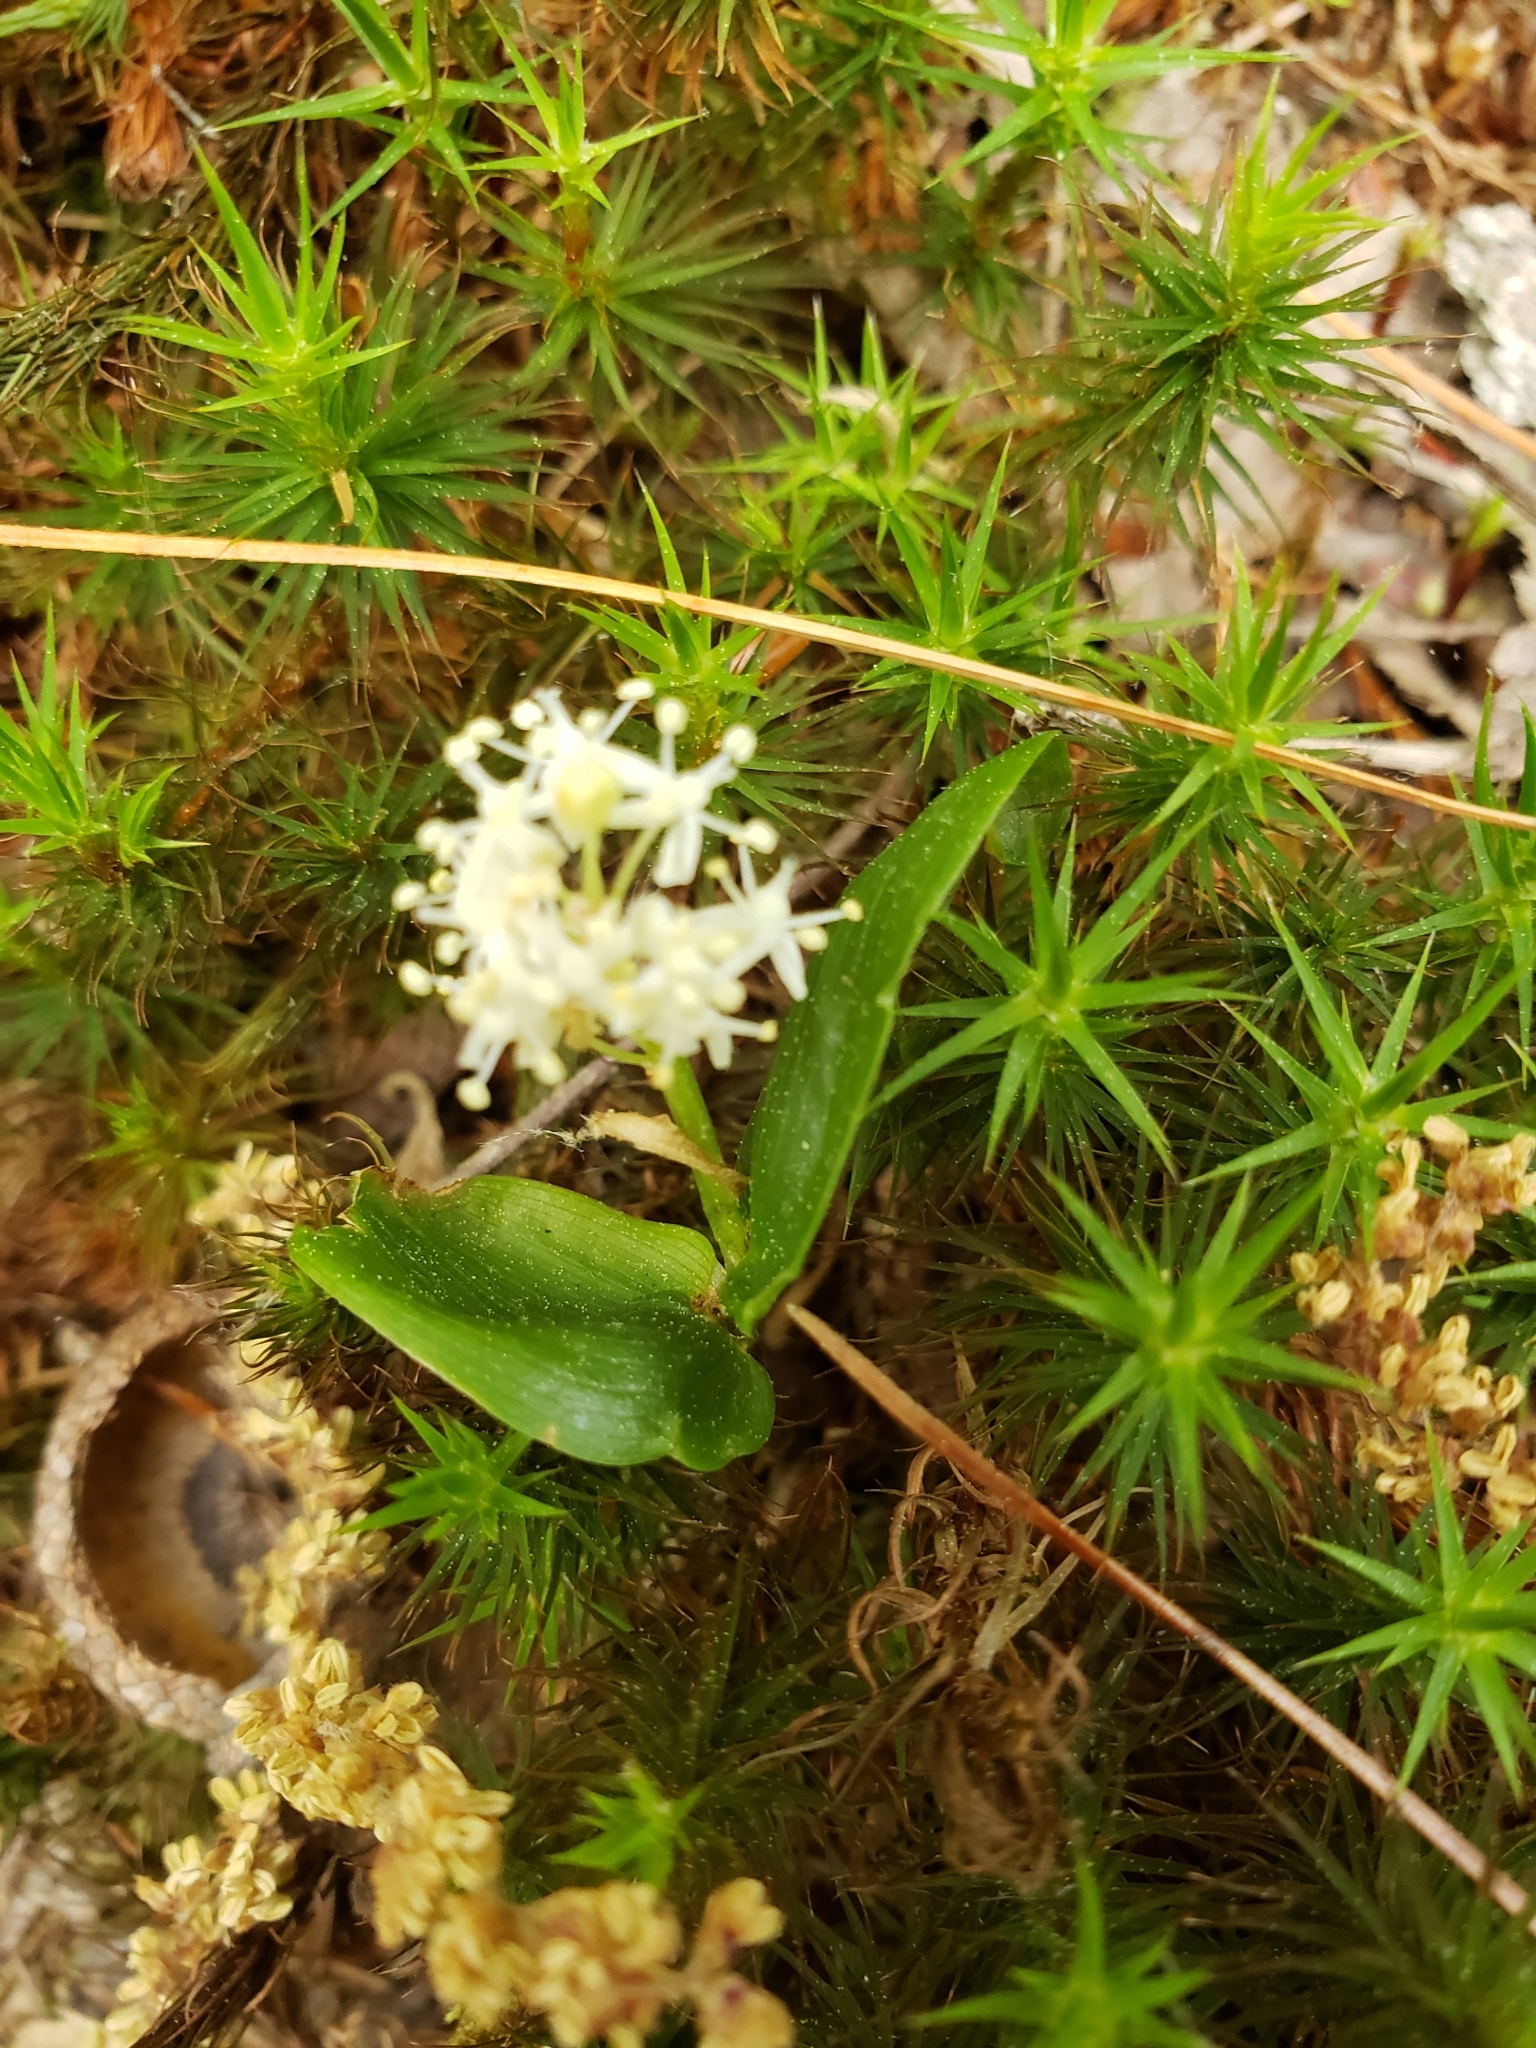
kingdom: Plantae
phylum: Tracheophyta
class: Liliopsida
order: Asparagales
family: Asparagaceae
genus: Maianthemum
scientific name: Maianthemum canadense
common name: False lily-of-the-valley
